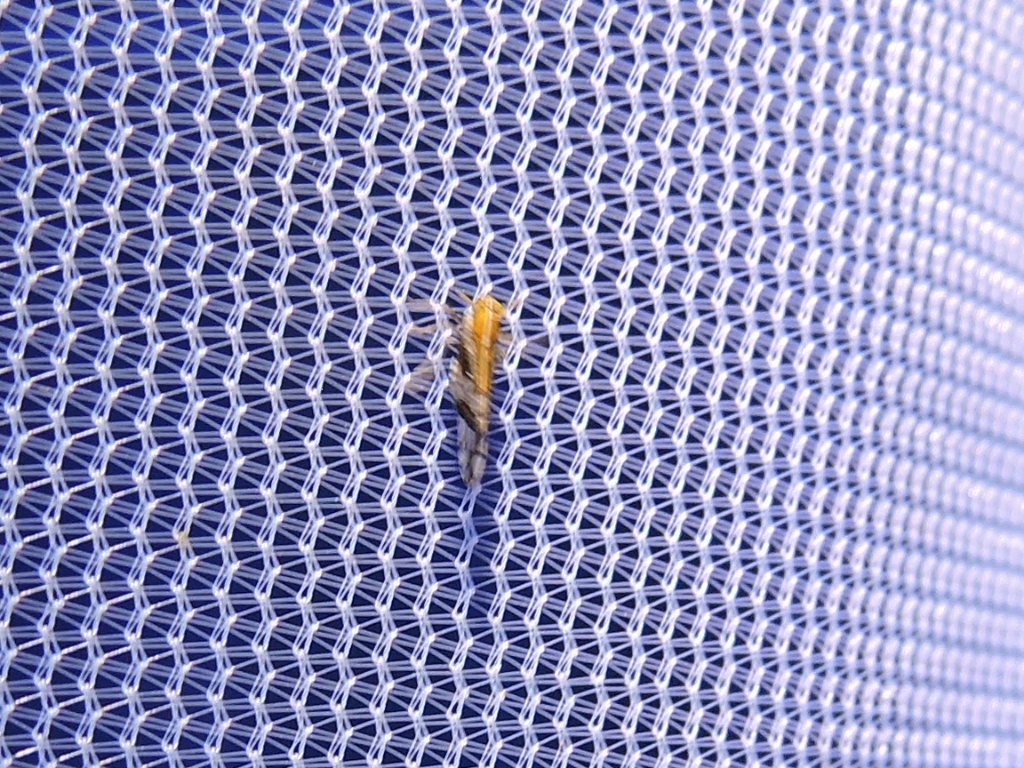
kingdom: Animalia
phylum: Arthropoda
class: Insecta
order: Hemiptera
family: Delphacidae
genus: Liburniella
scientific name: Liburniella ornata
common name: Ornate planthopper
